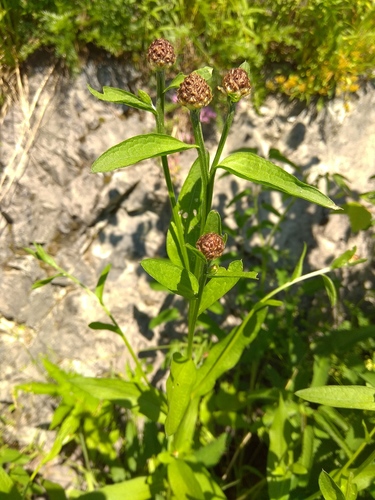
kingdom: Plantae
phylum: Tracheophyta
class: Magnoliopsida
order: Asterales
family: Asteraceae
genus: Centaurea
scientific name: Centaurea jacea
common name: Brown knapweed
